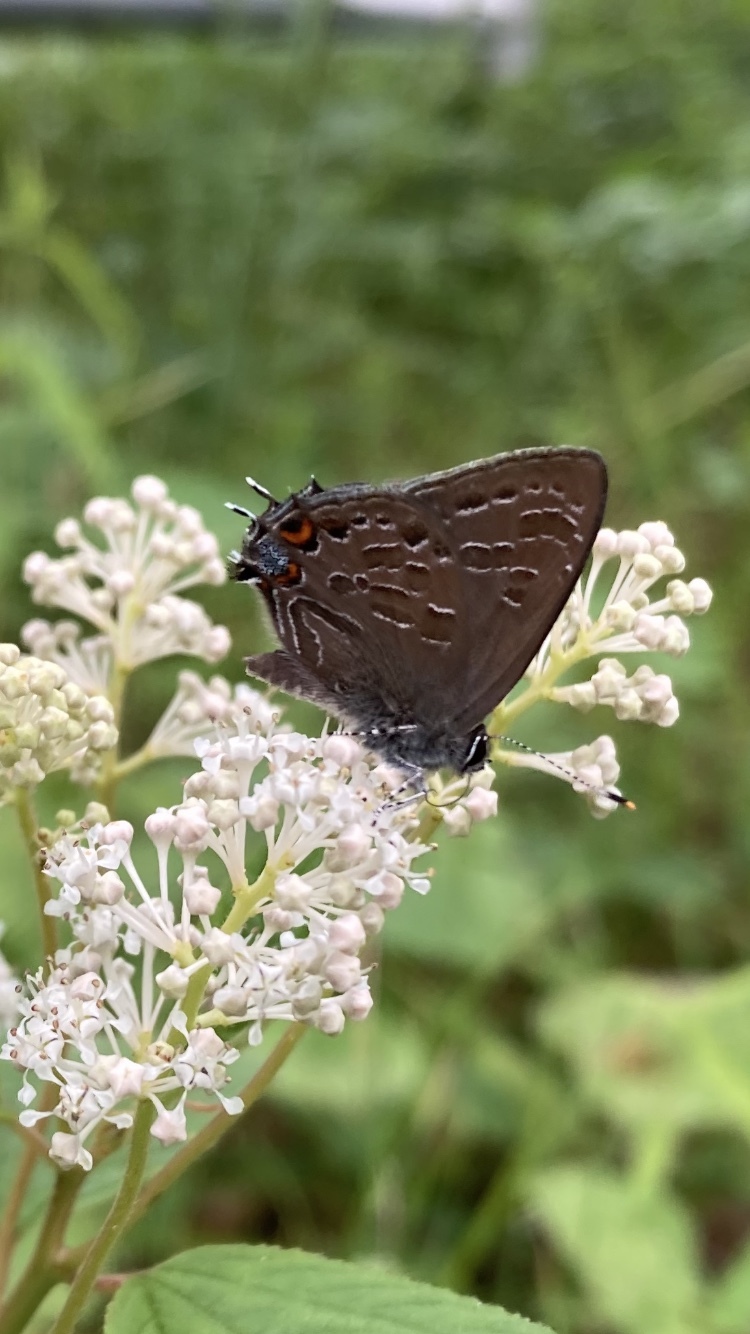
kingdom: Animalia
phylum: Arthropoda
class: Insecta
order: Lepidoptera
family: Lycaenidae
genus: Satyrium
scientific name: Satyrium liparops
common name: Striped hairstreak
